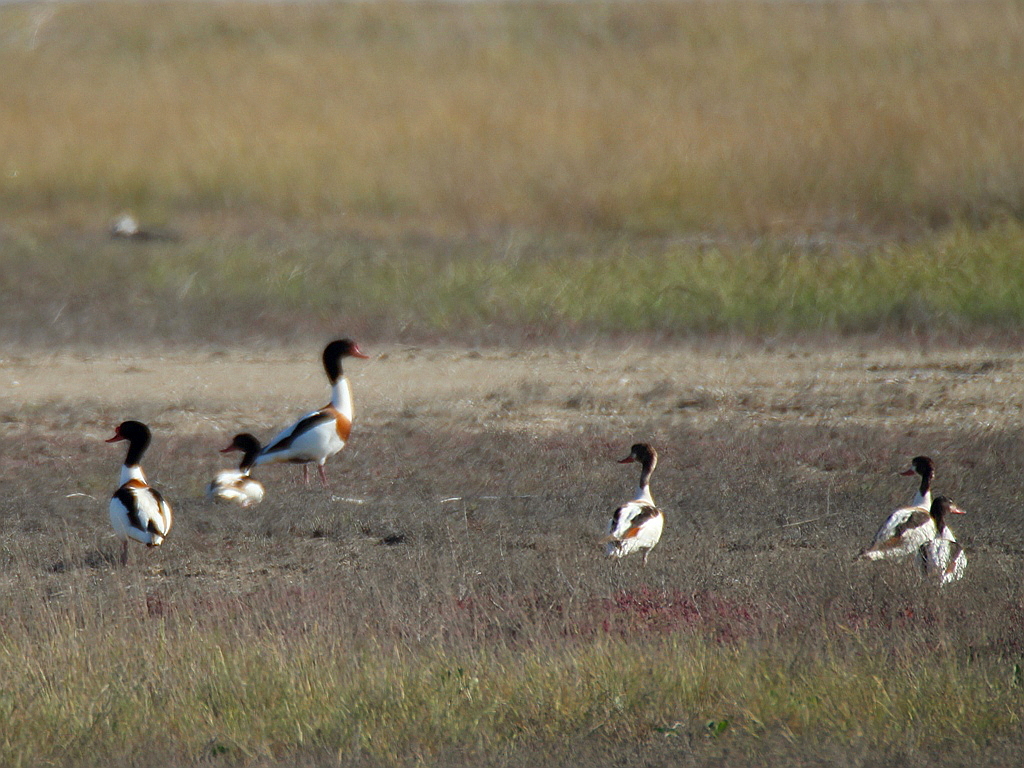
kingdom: Animalia
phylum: Chordata
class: Aves
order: Anseriformes
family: Anatidae
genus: Tadorna
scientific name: Tadorna tadorna
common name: Common shelduck
